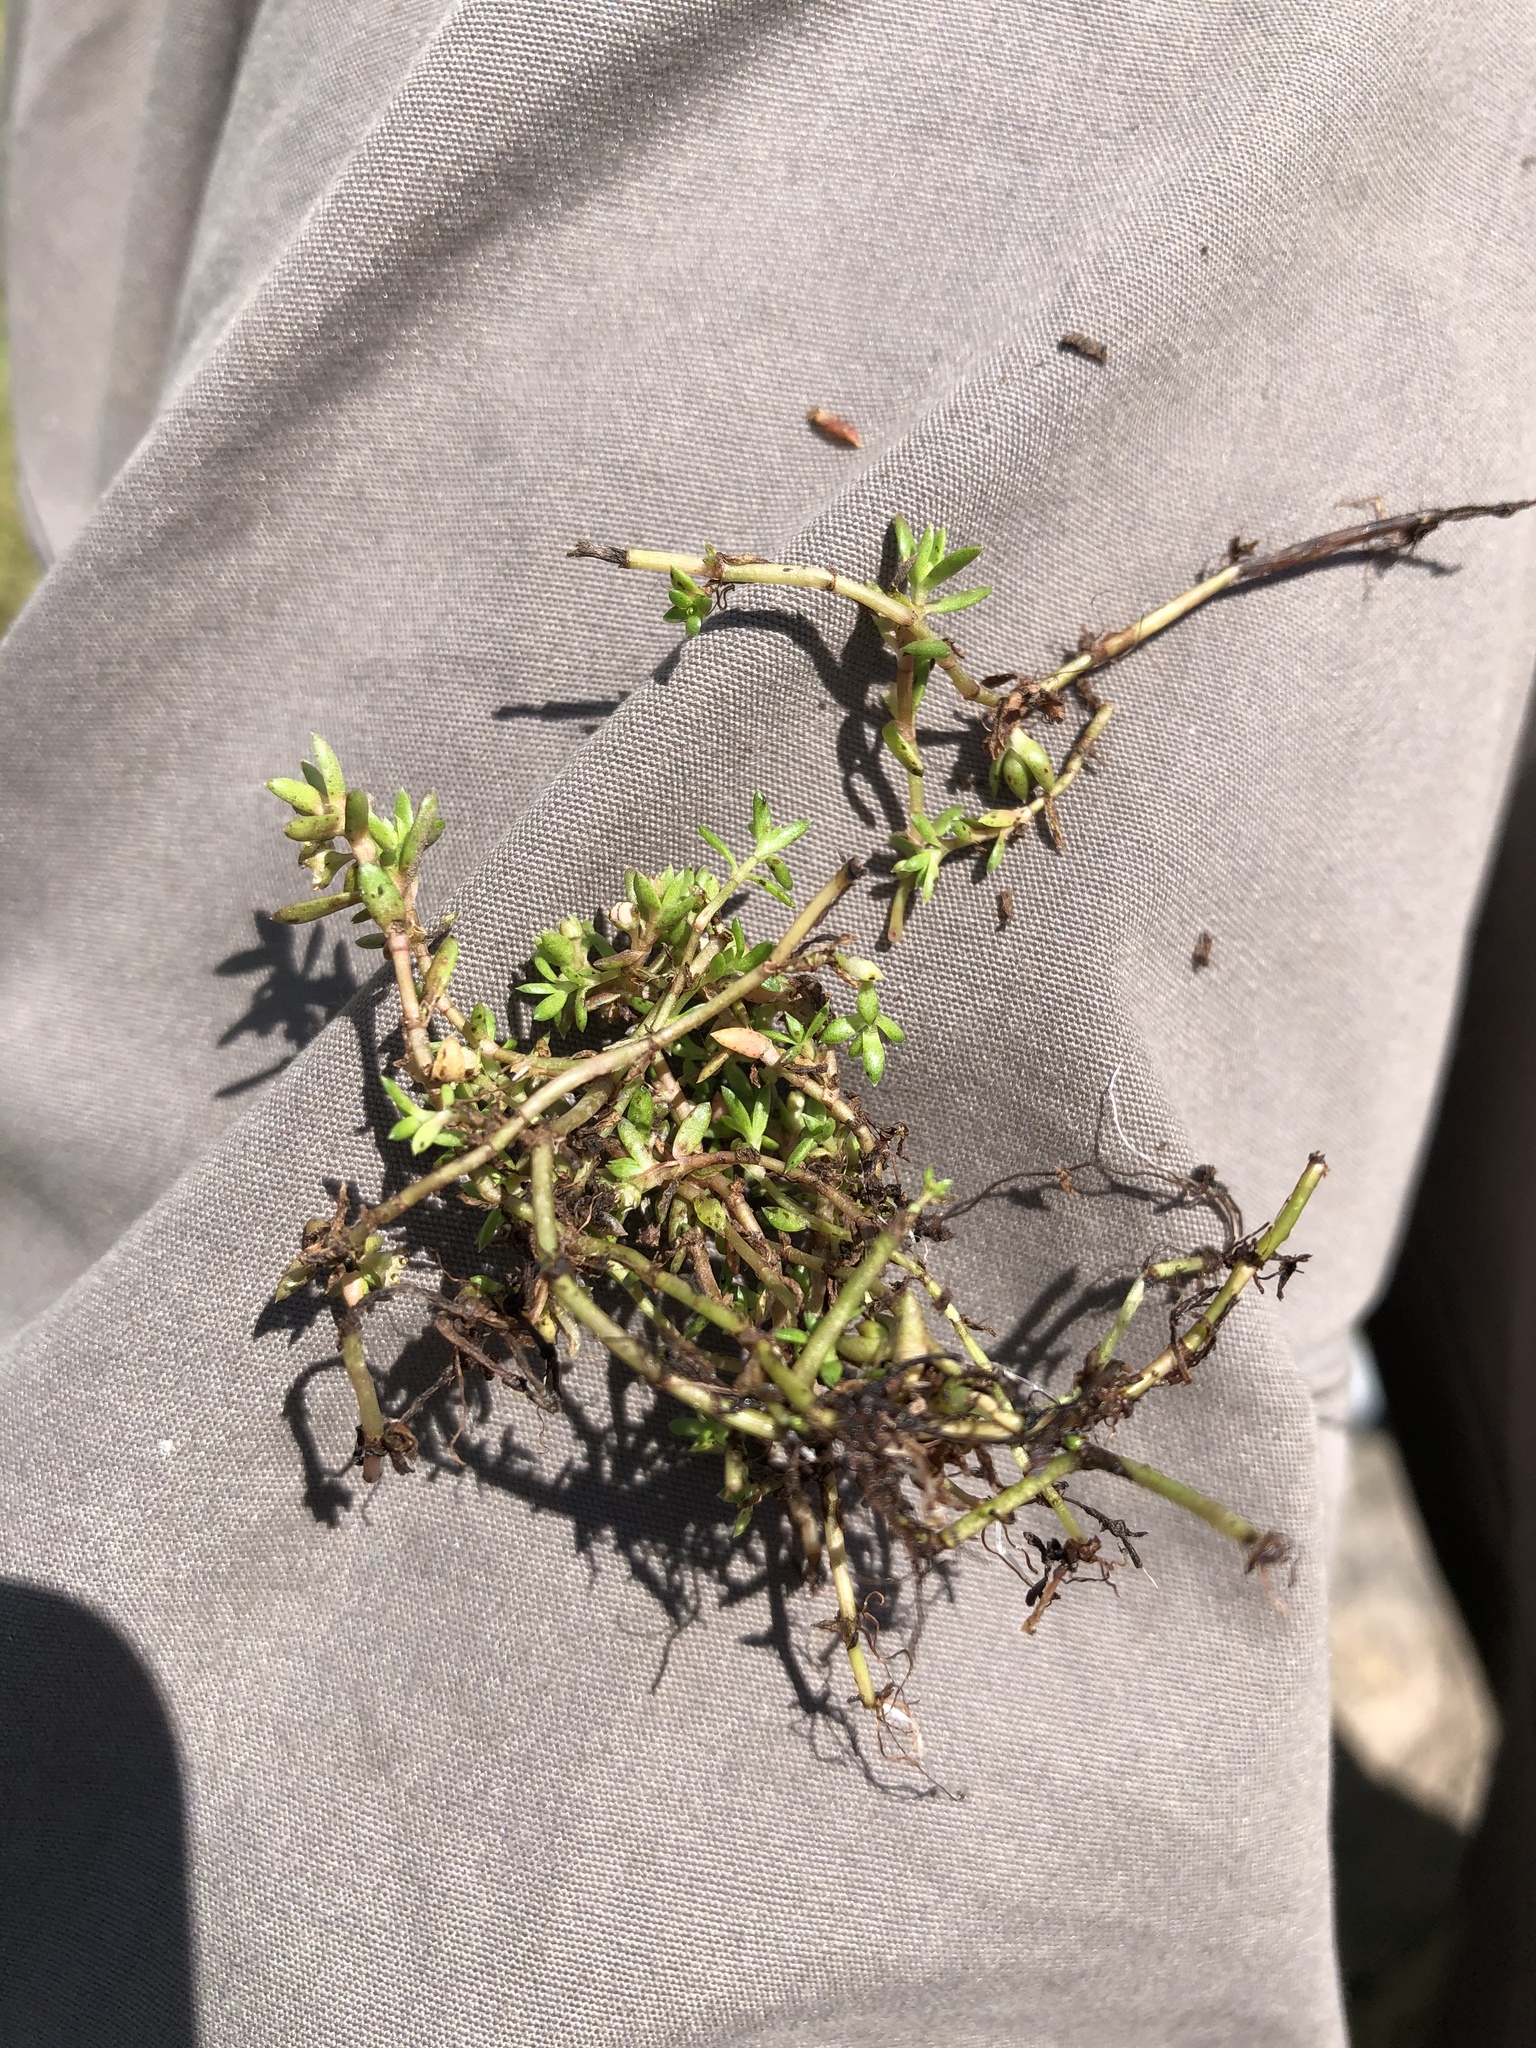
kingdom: Plantae
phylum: Tracheophyta
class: Magnoliopsida
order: Saxifragales
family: Crassulaceae
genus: Crassula
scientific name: Crassula helmsii
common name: New zealand pigmyweed
